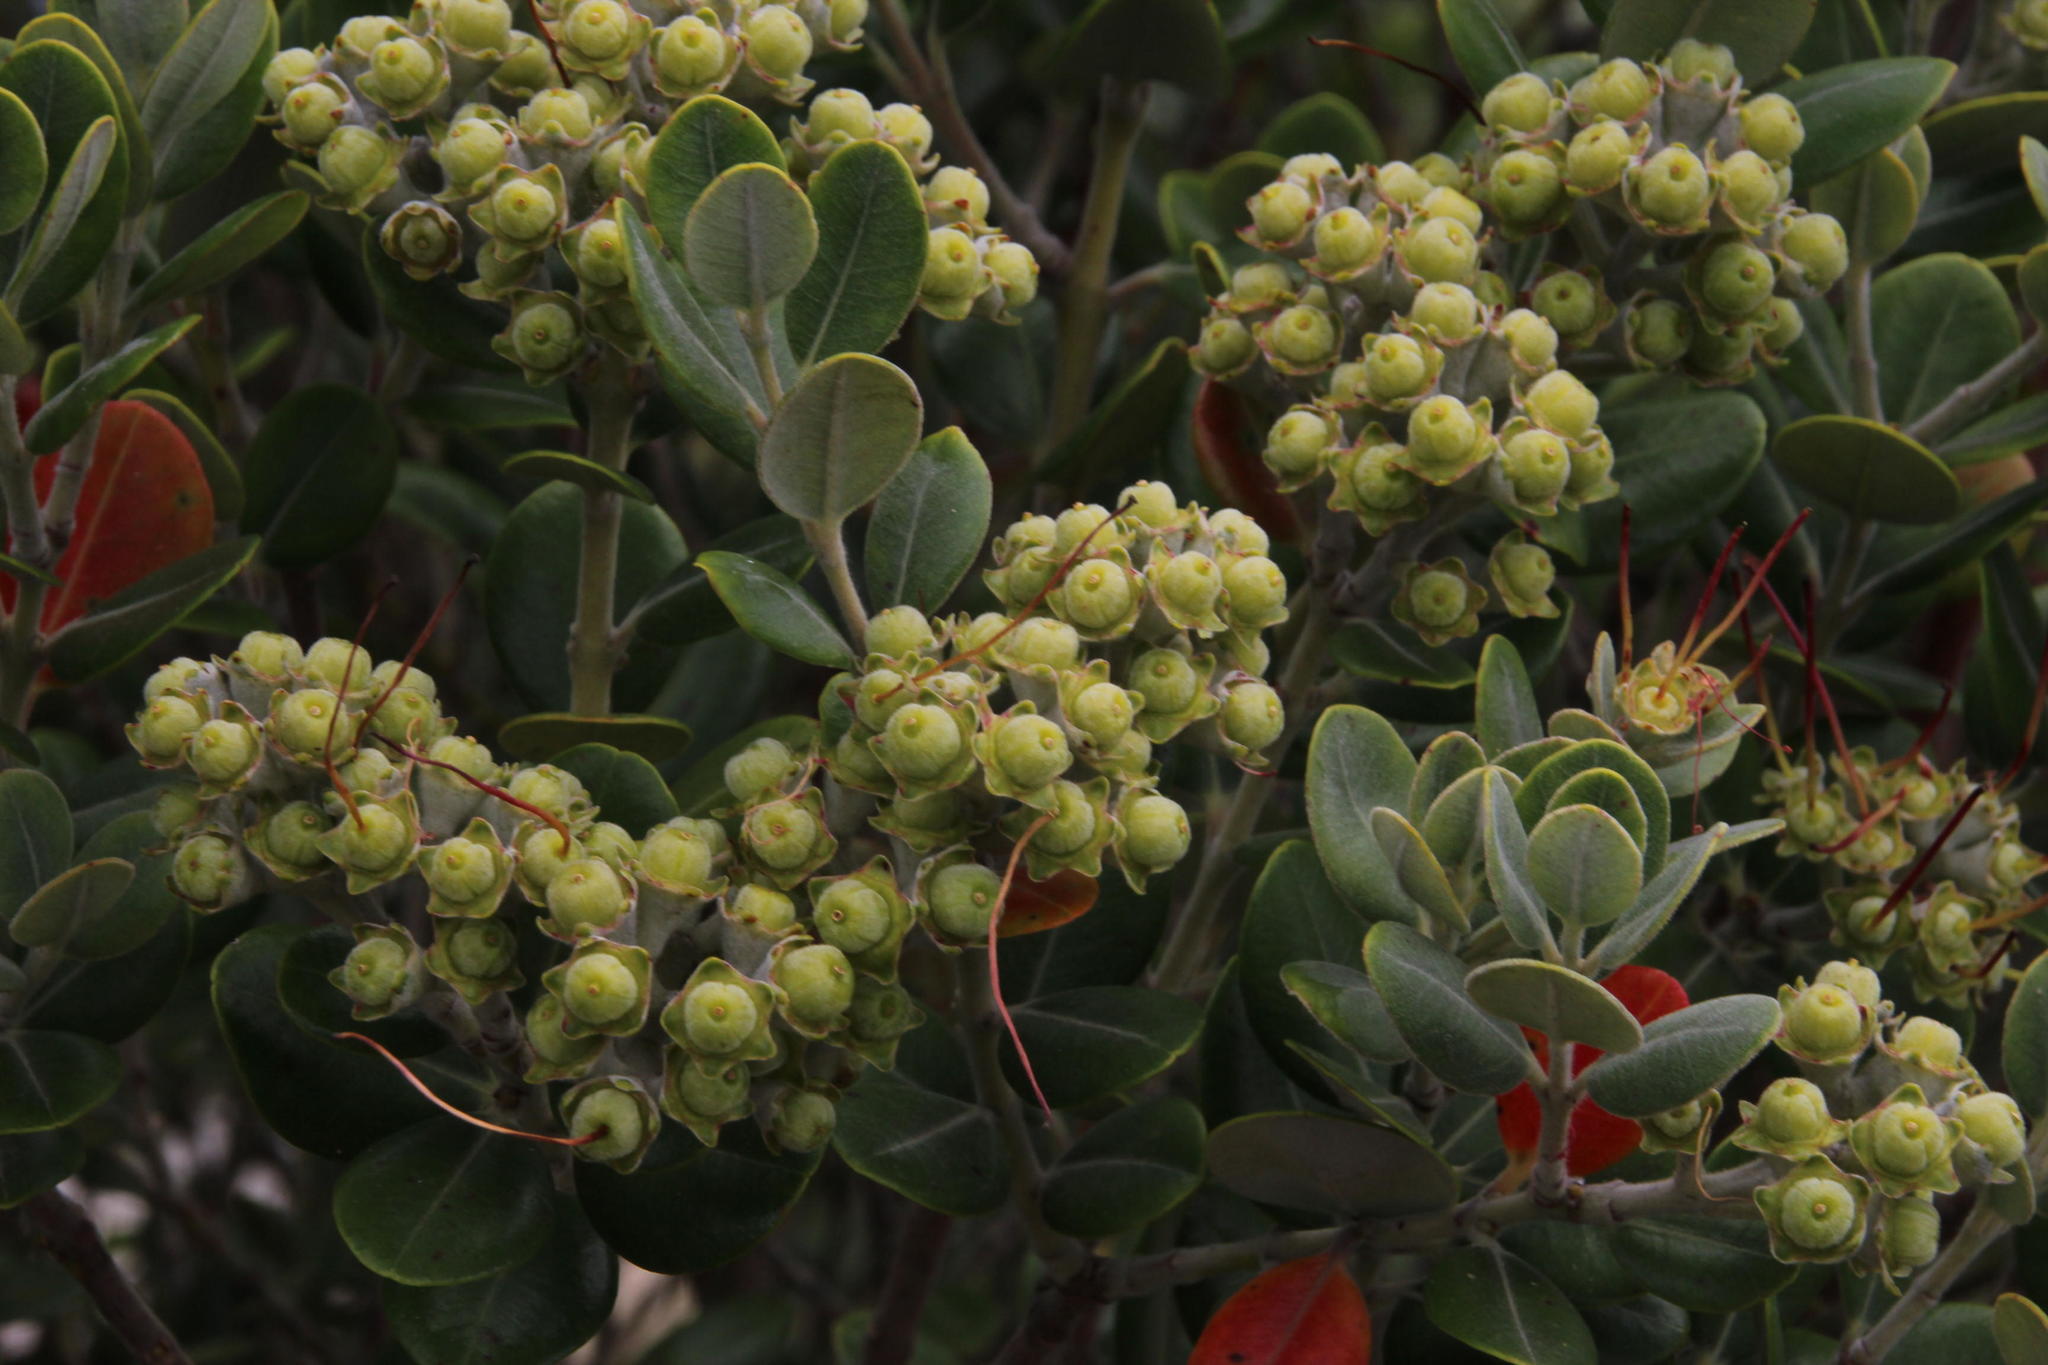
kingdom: Plantae
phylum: Tracheophyta
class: Magnoliopsida
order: Myrtales
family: Myrtaceae
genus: Metrosideros
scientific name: Metrosideros excelsa
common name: New zealand christmastree
